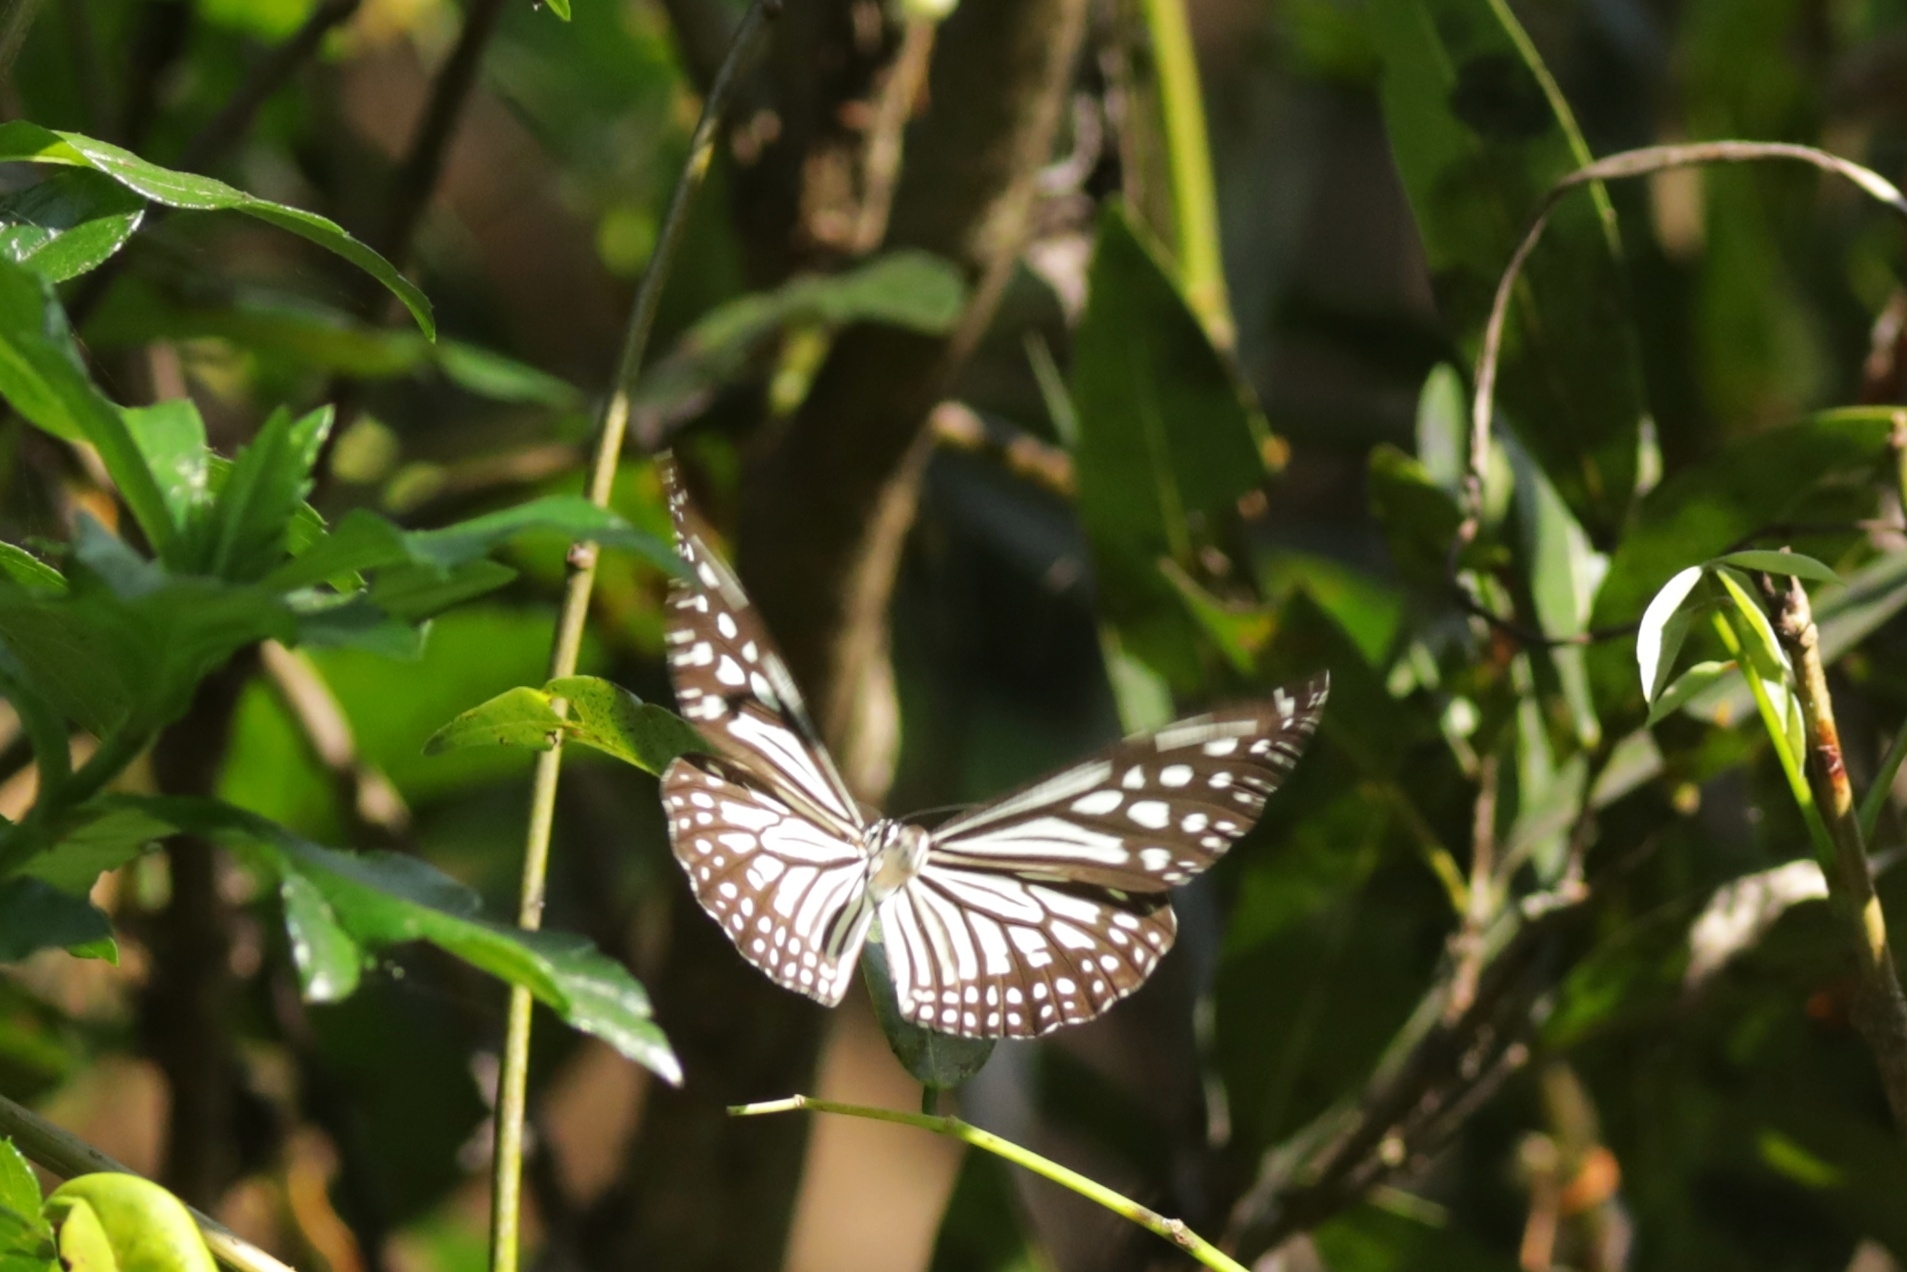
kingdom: Animalia
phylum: Arthropoda
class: Insecta
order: Lepidoptera
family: Nymphalidae
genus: Parantica
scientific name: Parantica aglea
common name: Glassy tiger
